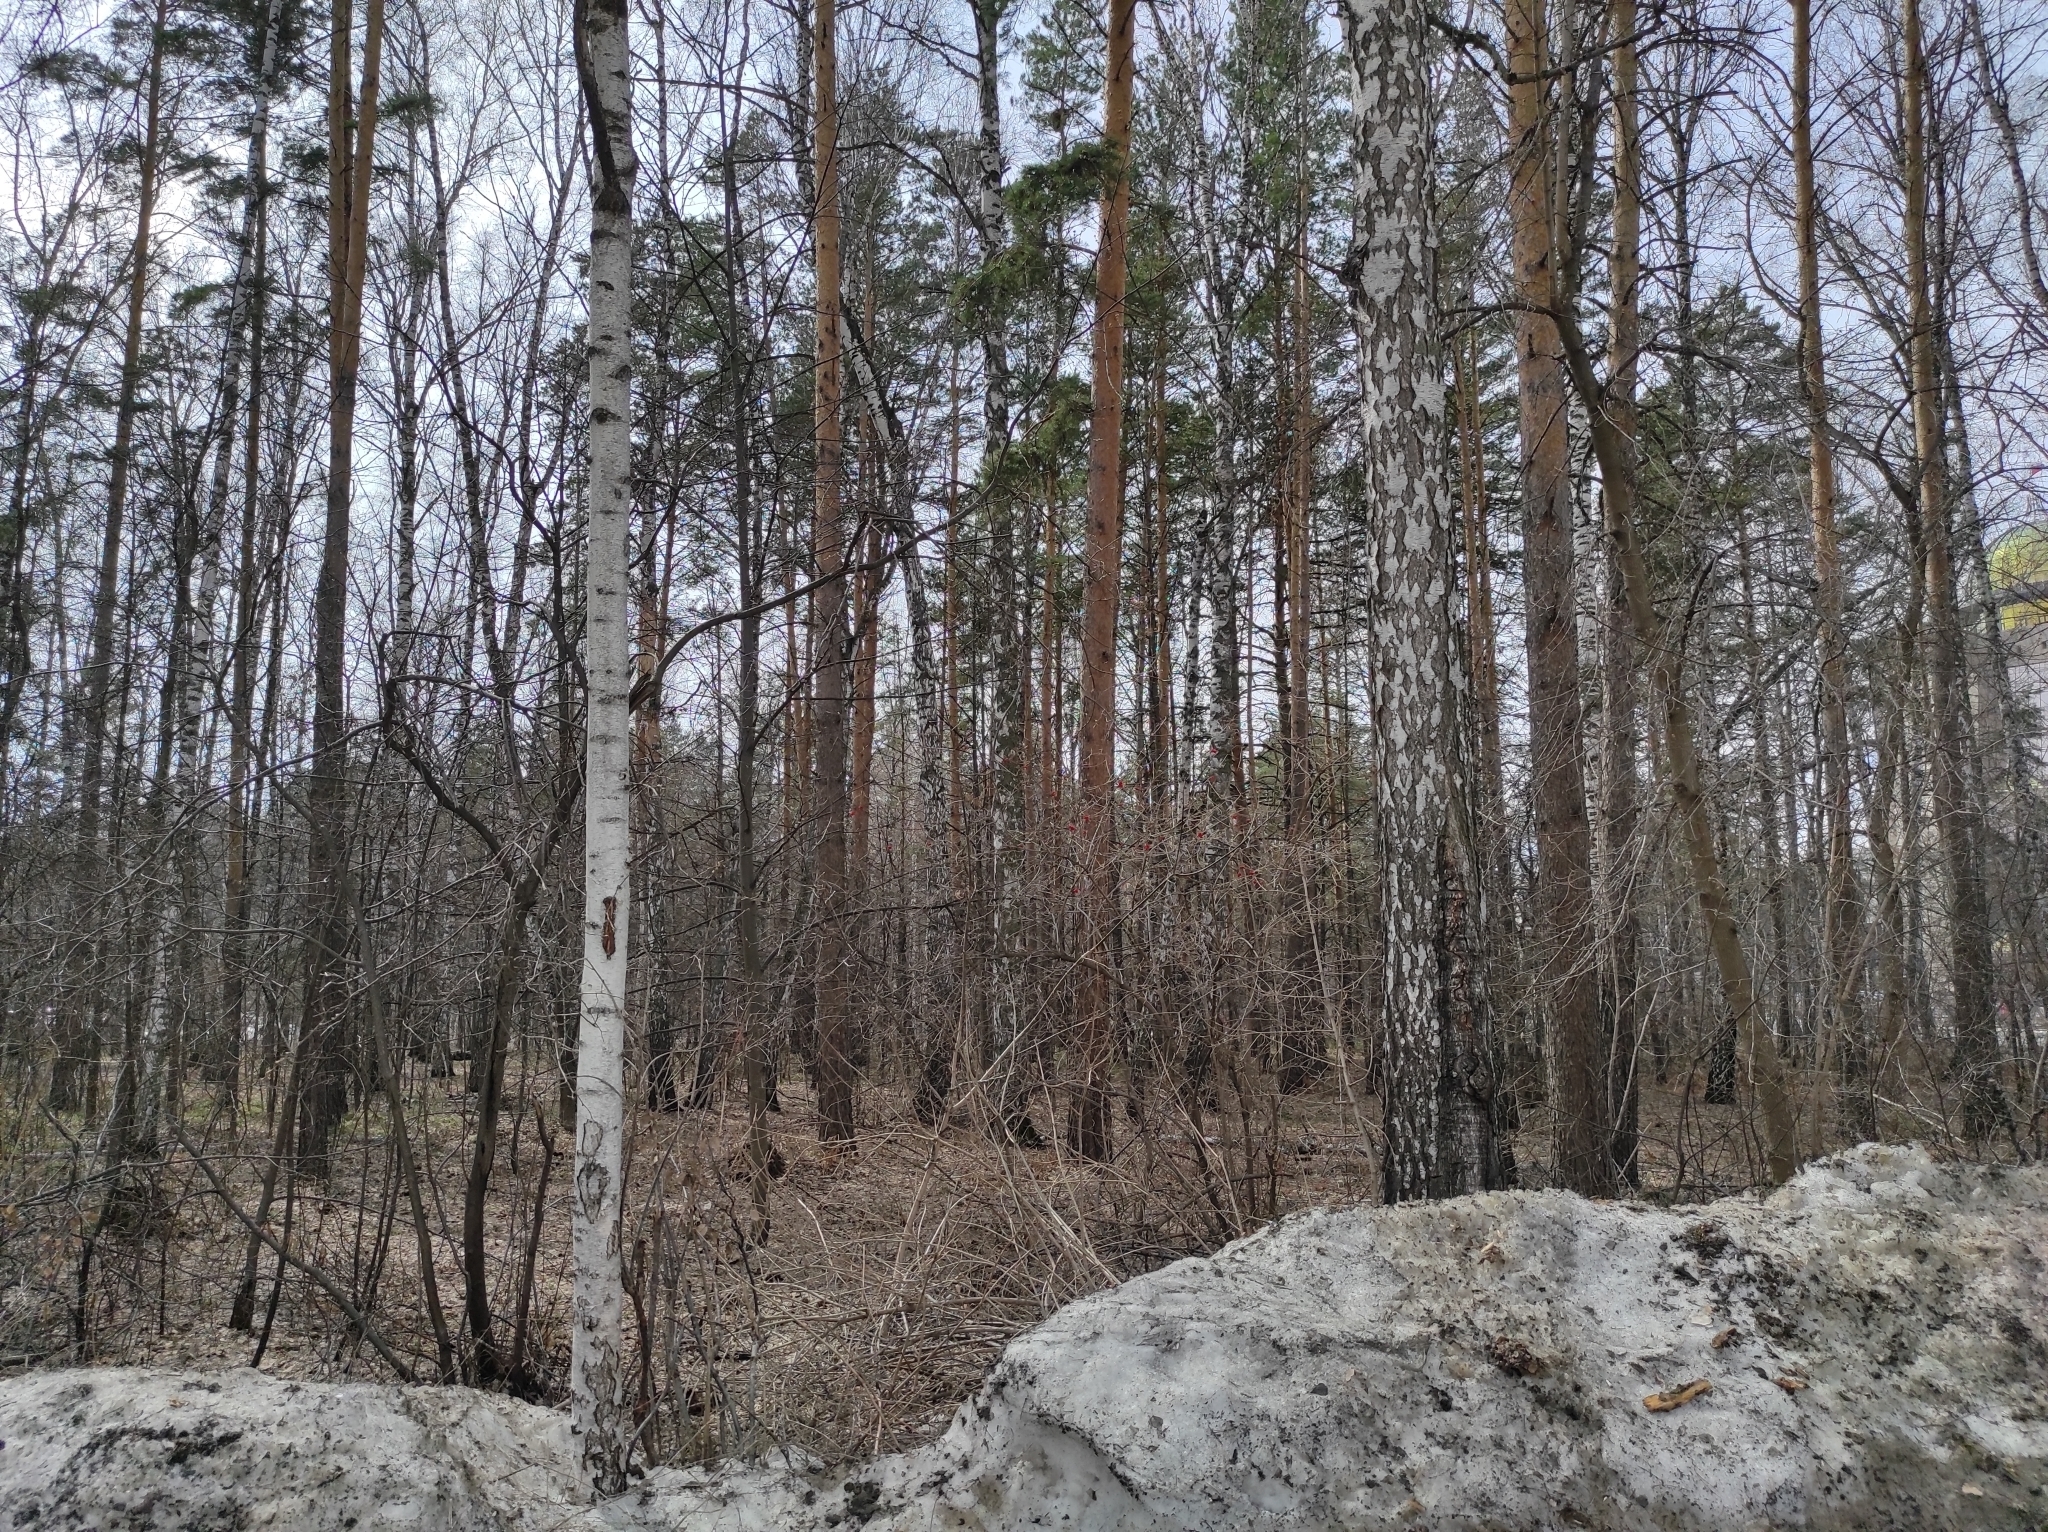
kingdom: Animalia
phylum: Chordata
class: Aves
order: Passeriformes
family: Sittidae
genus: Sitta
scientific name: Sitta europaea
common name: Eurasian nuthatch
